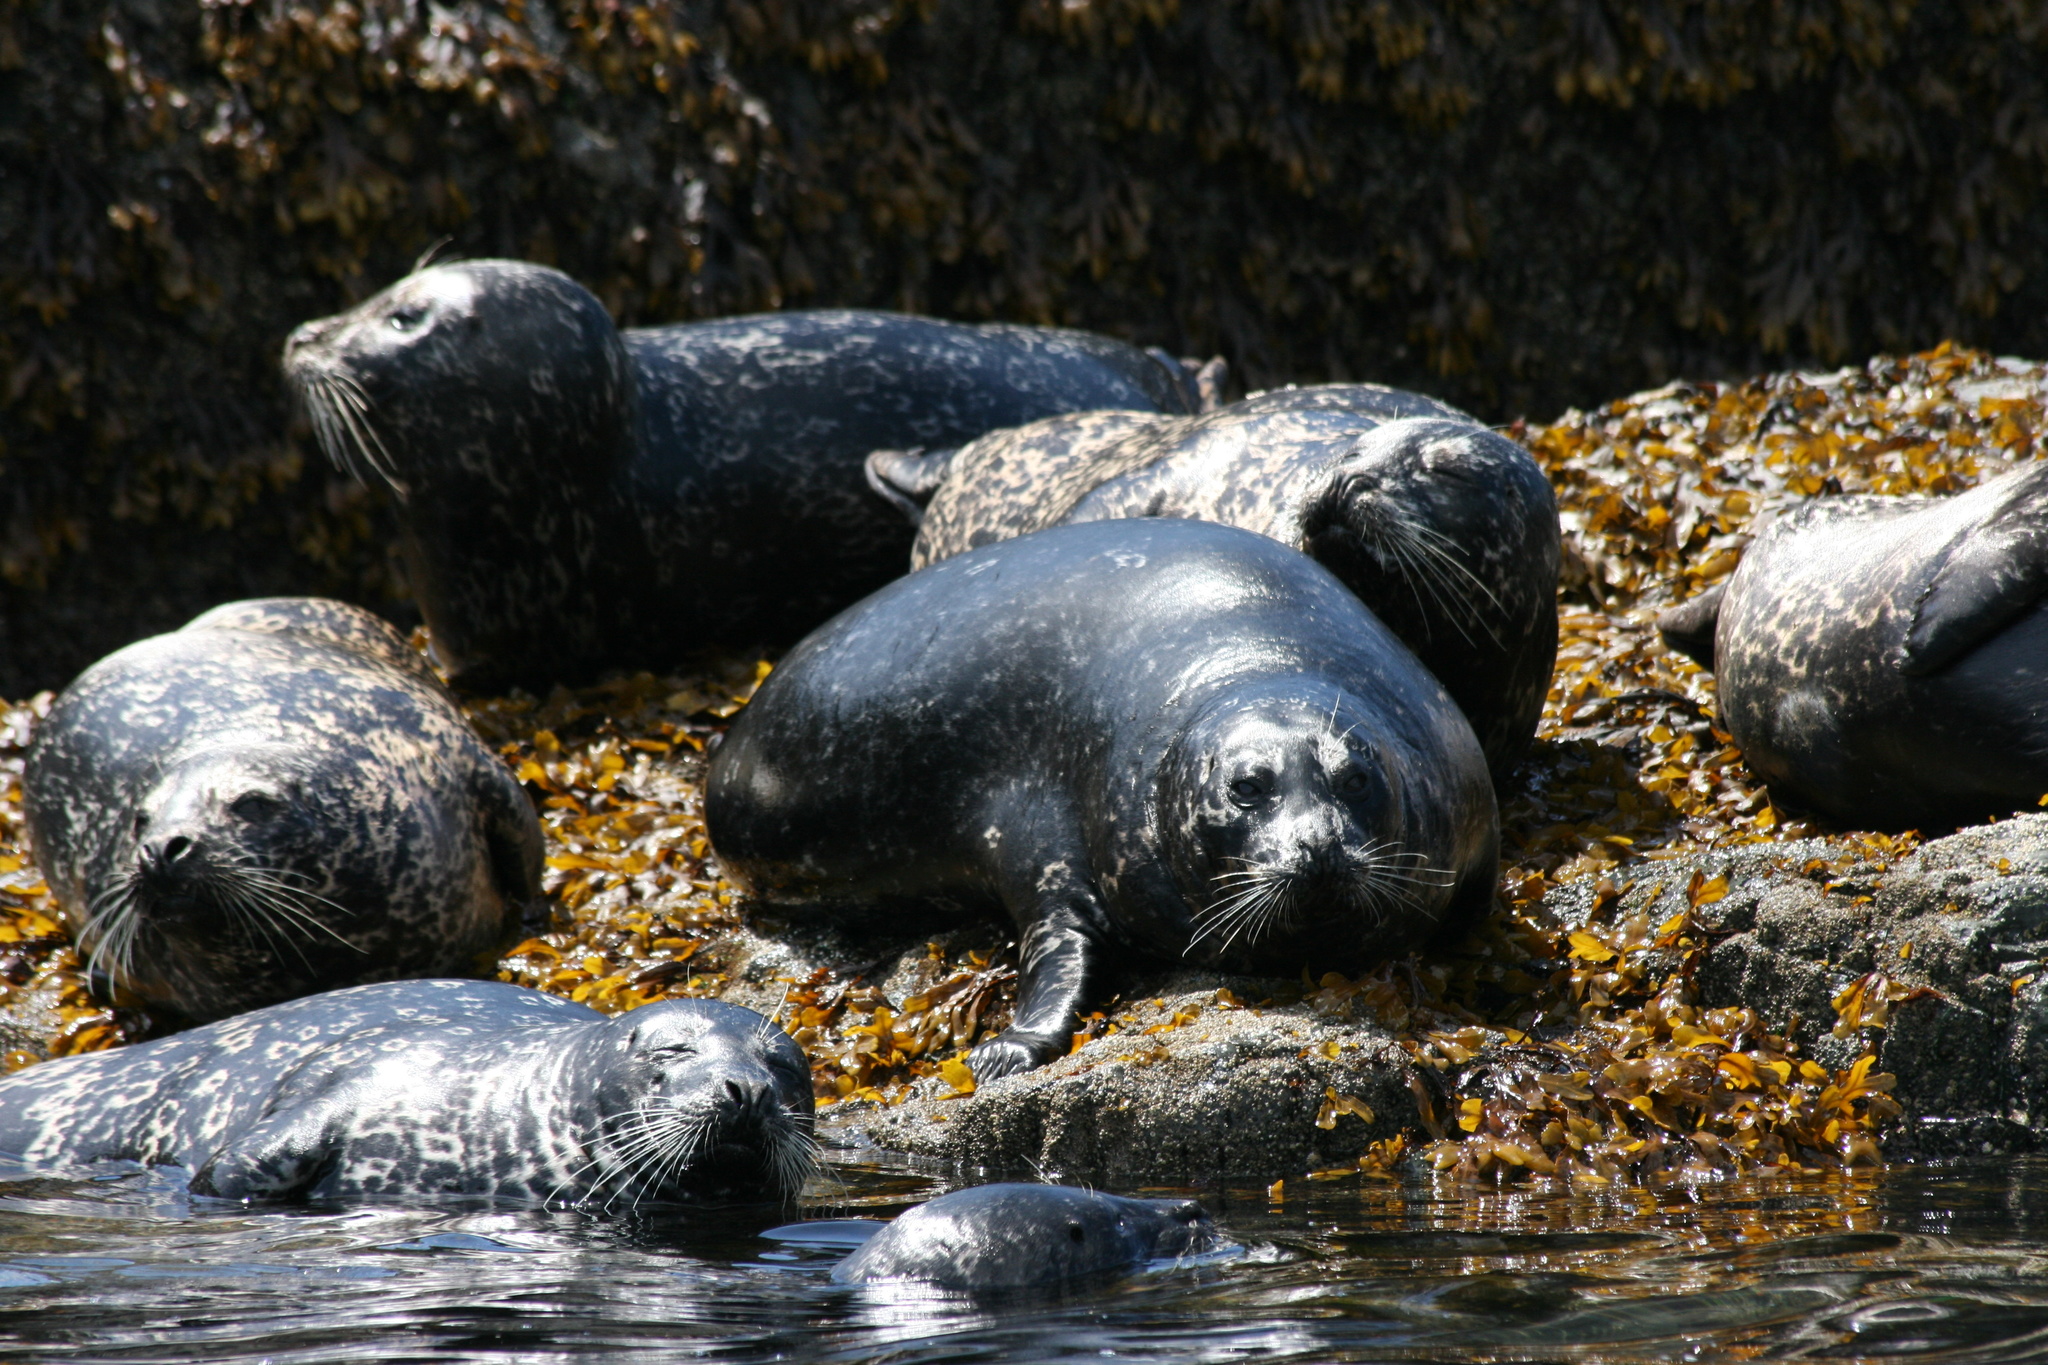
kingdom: Animalia
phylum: Chordata
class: Mammalia
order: Carnivora
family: Phocidae
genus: Phoca
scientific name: Phoca vitulina
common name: Harbor seal
